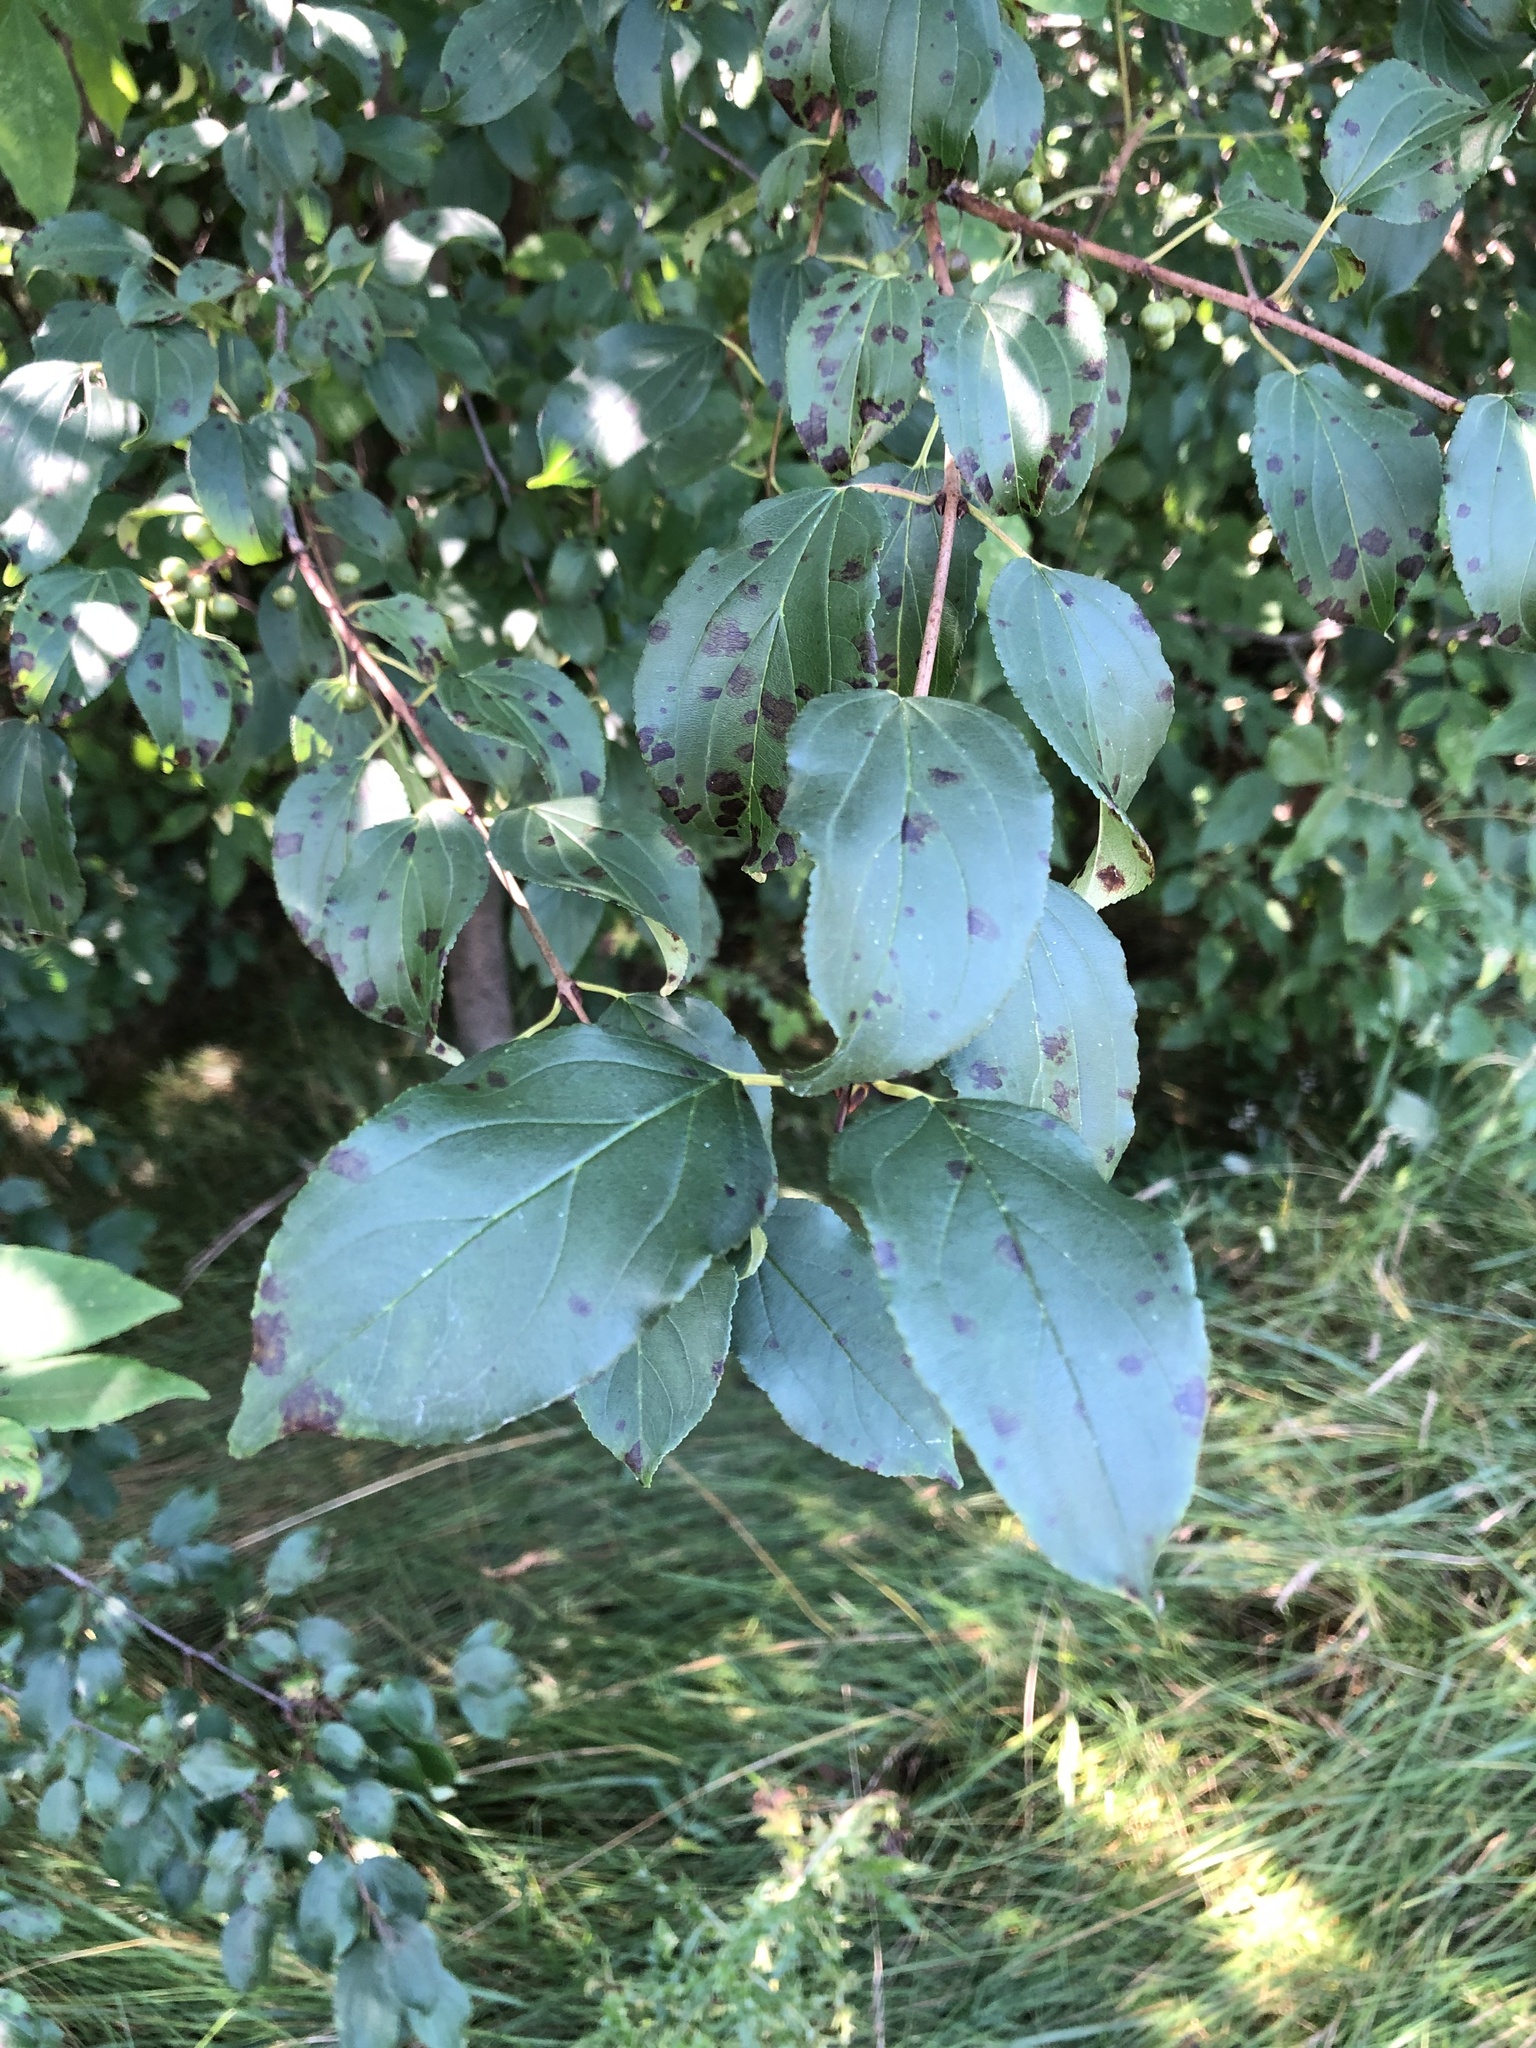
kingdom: Plantae
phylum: Tracheophyta
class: Magnoliopsida
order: Rosales
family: Rhamnaceae
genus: Rhamnus
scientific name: Rhamnus cathartica
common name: Common buckthorn
